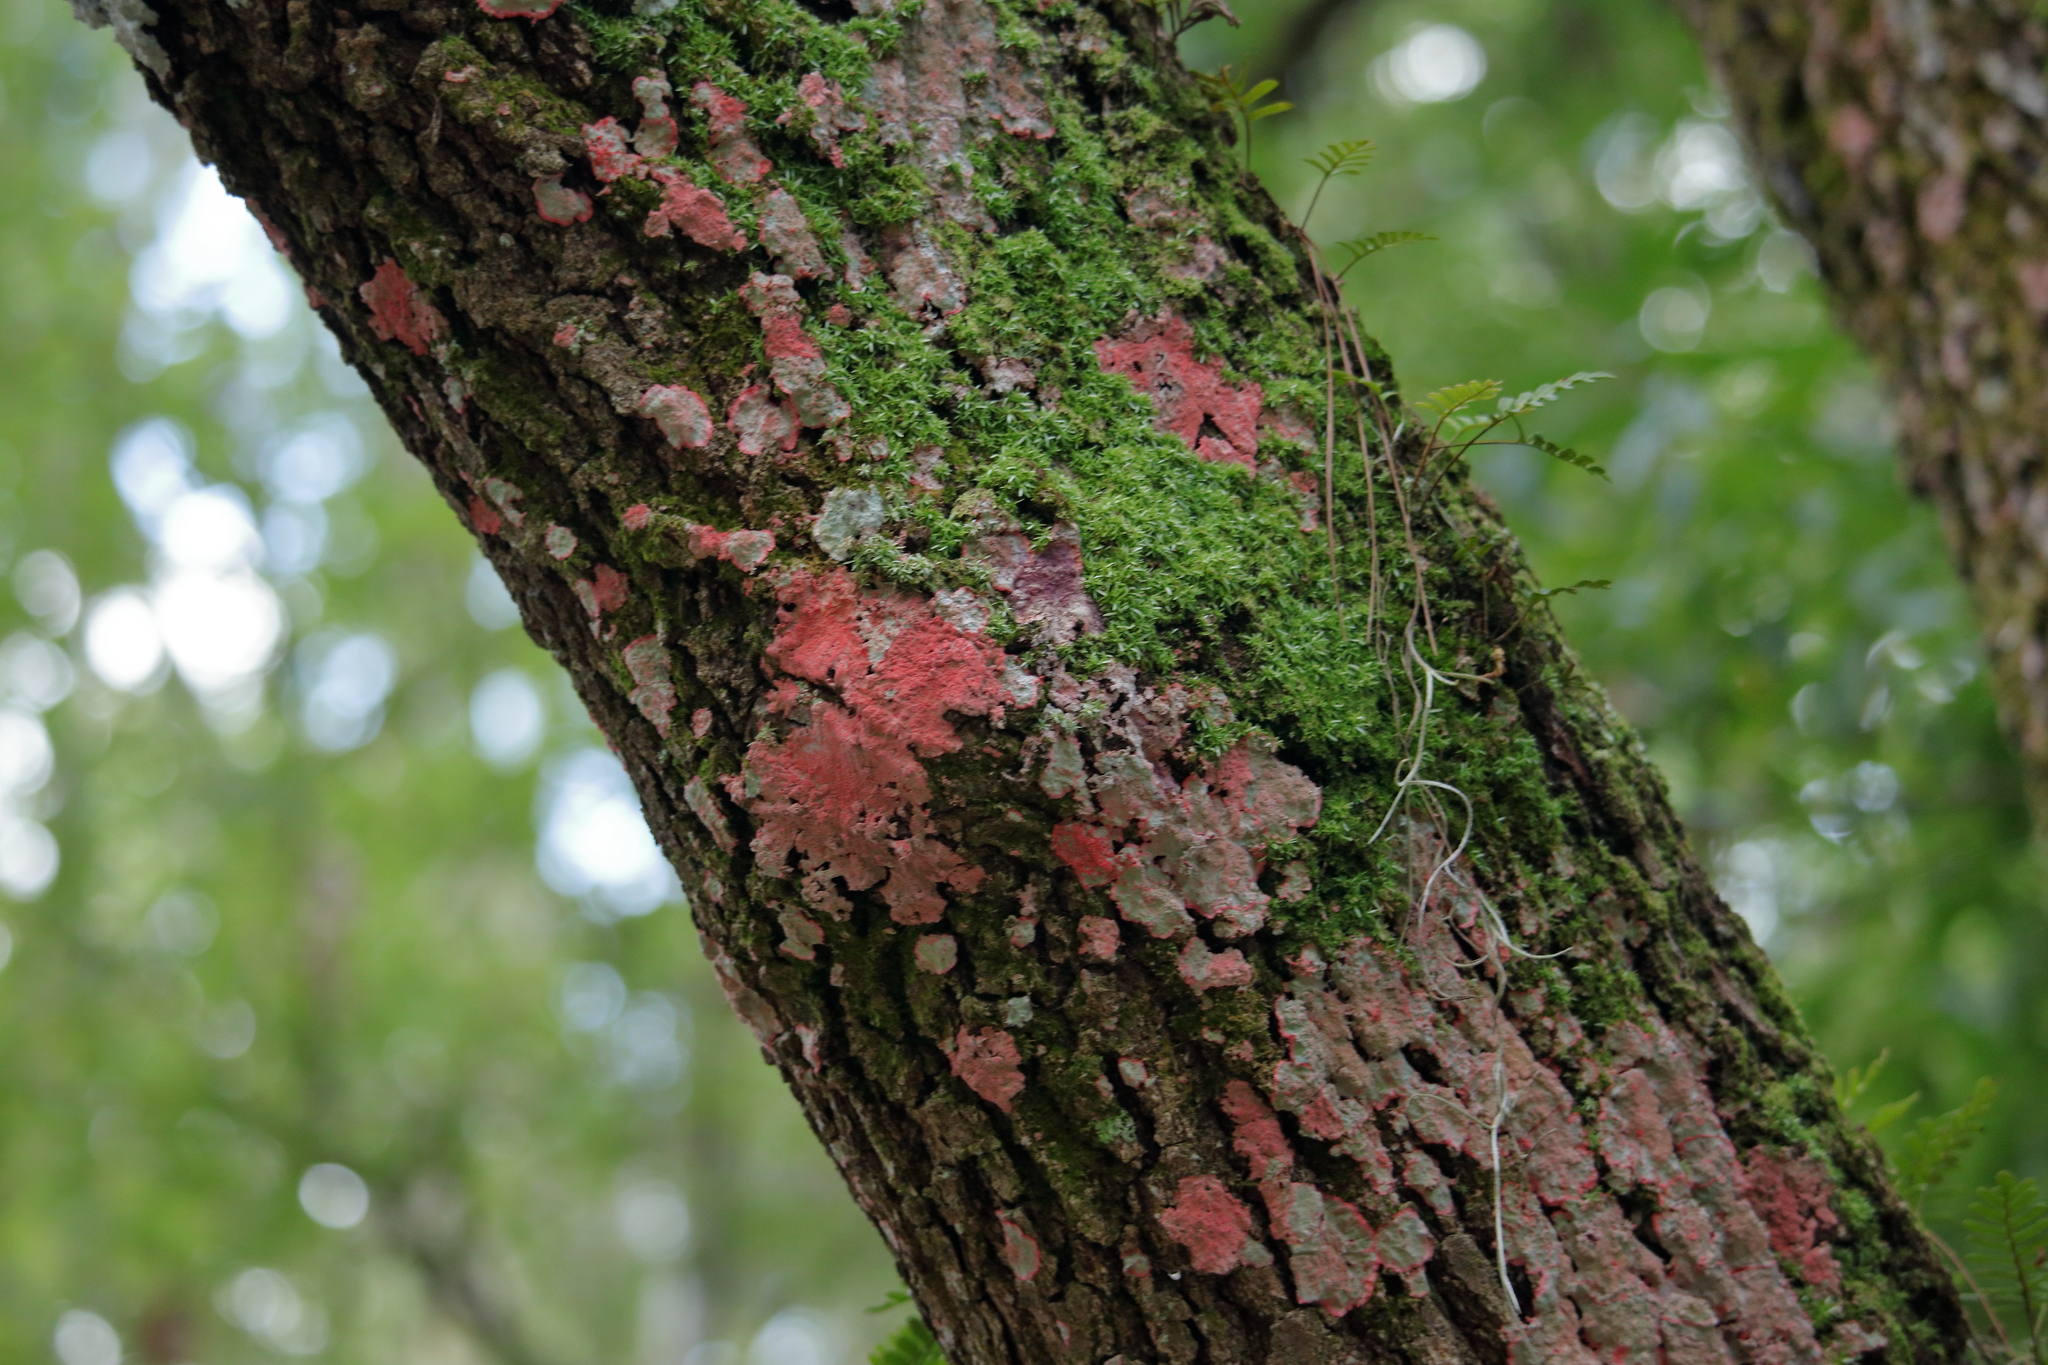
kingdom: Fungi
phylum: Ascomycota
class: Arthoniomycetes
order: Arthoniales
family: Arthoniaceae
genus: Herpothallon
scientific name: Herpothallon rubrocinctum
